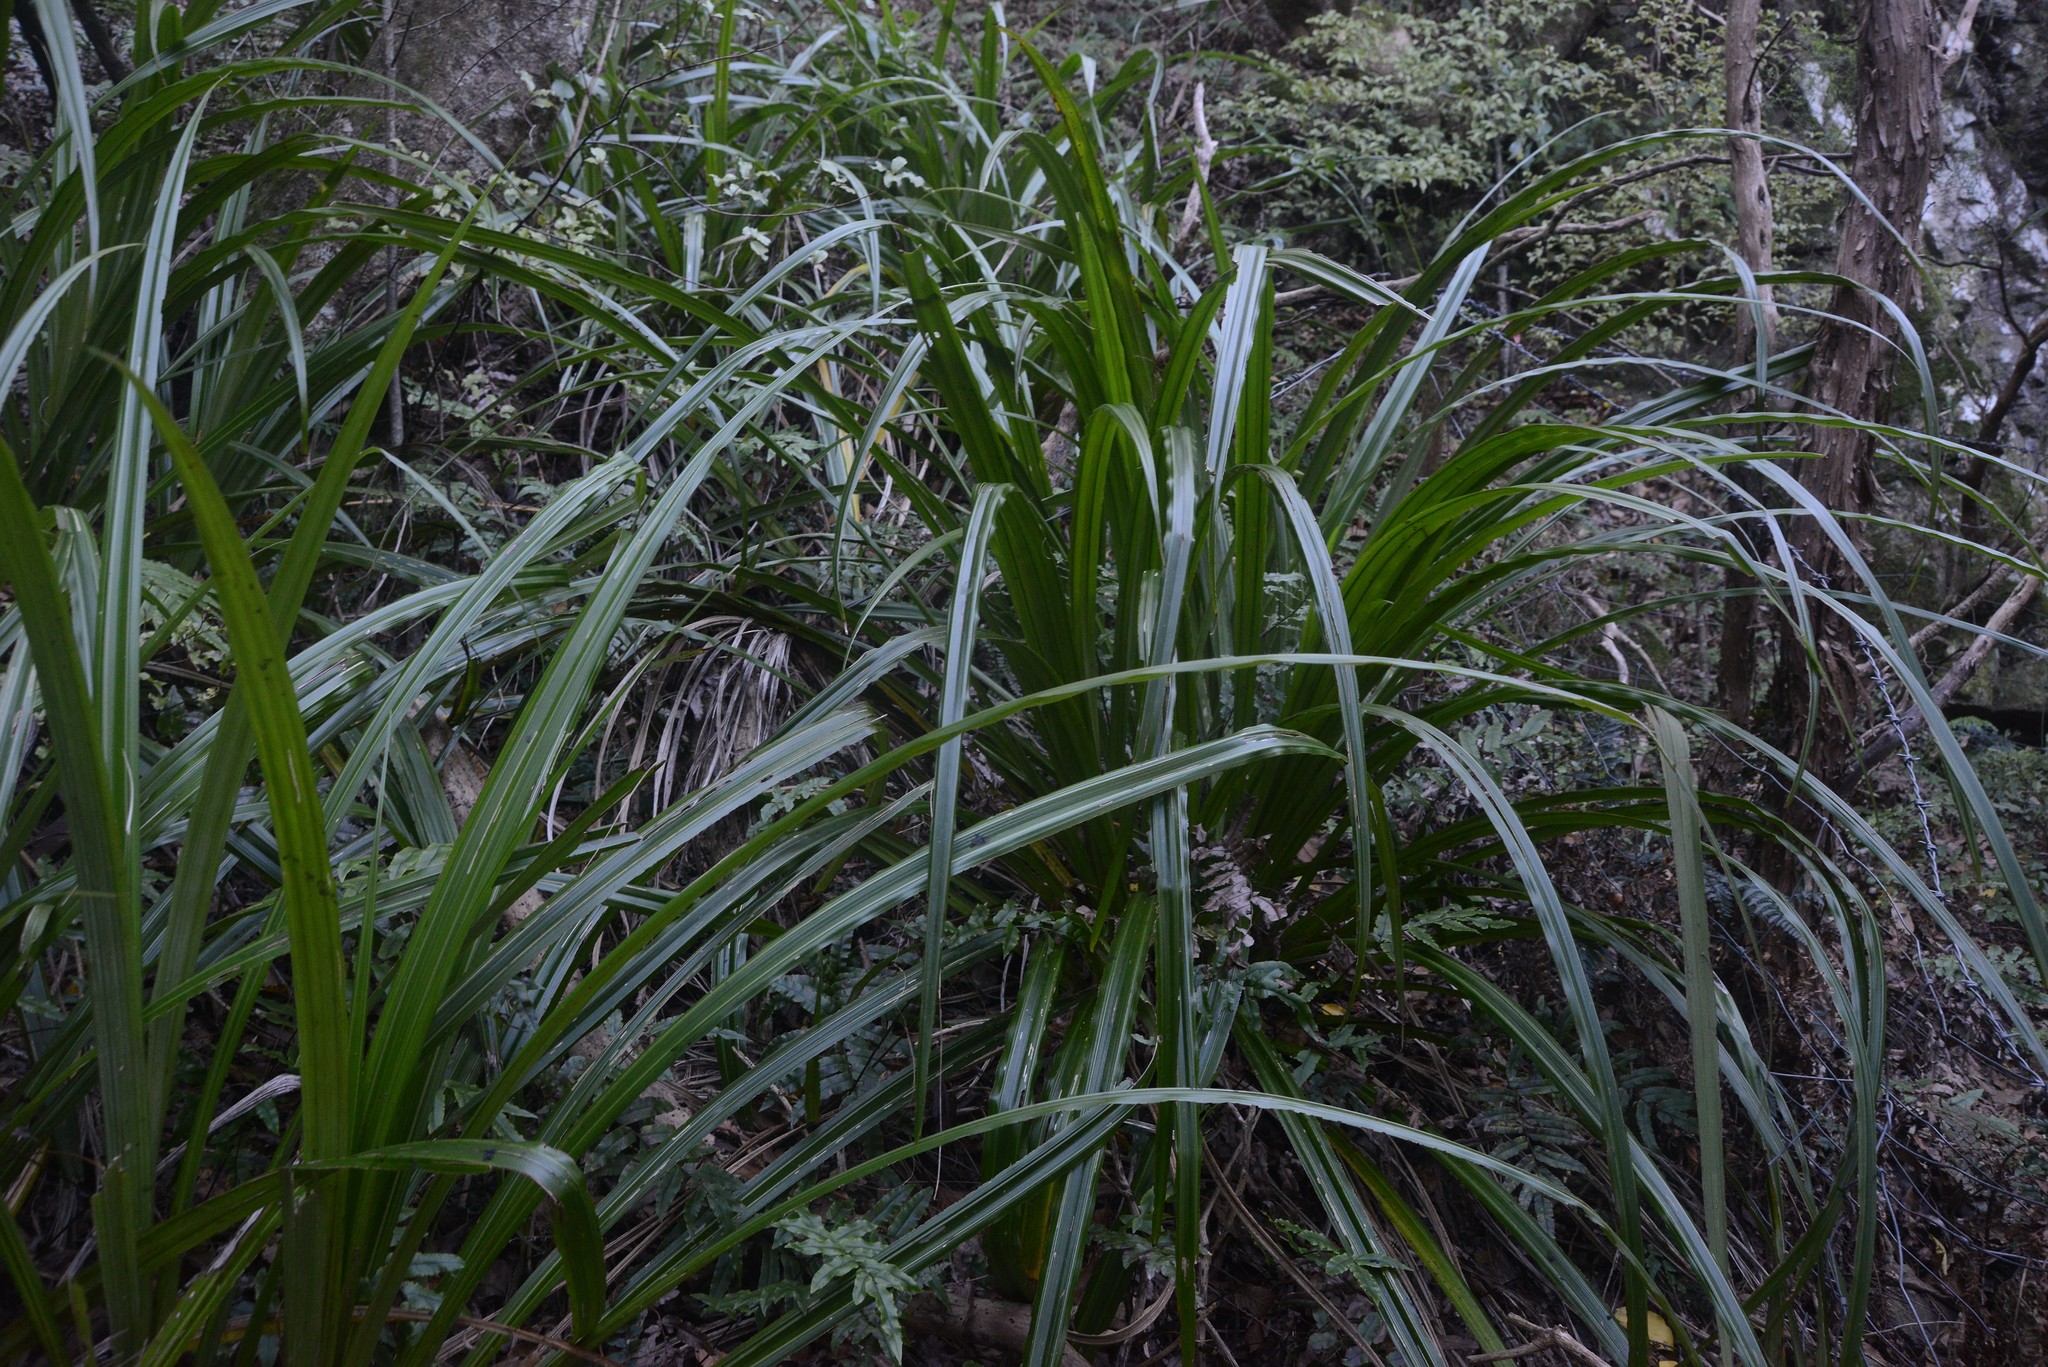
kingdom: Plantae
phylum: Tracheophyta
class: Liliopsida
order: Asparagales
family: Asteliaceae
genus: Astelia
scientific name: Astelia fragrans
